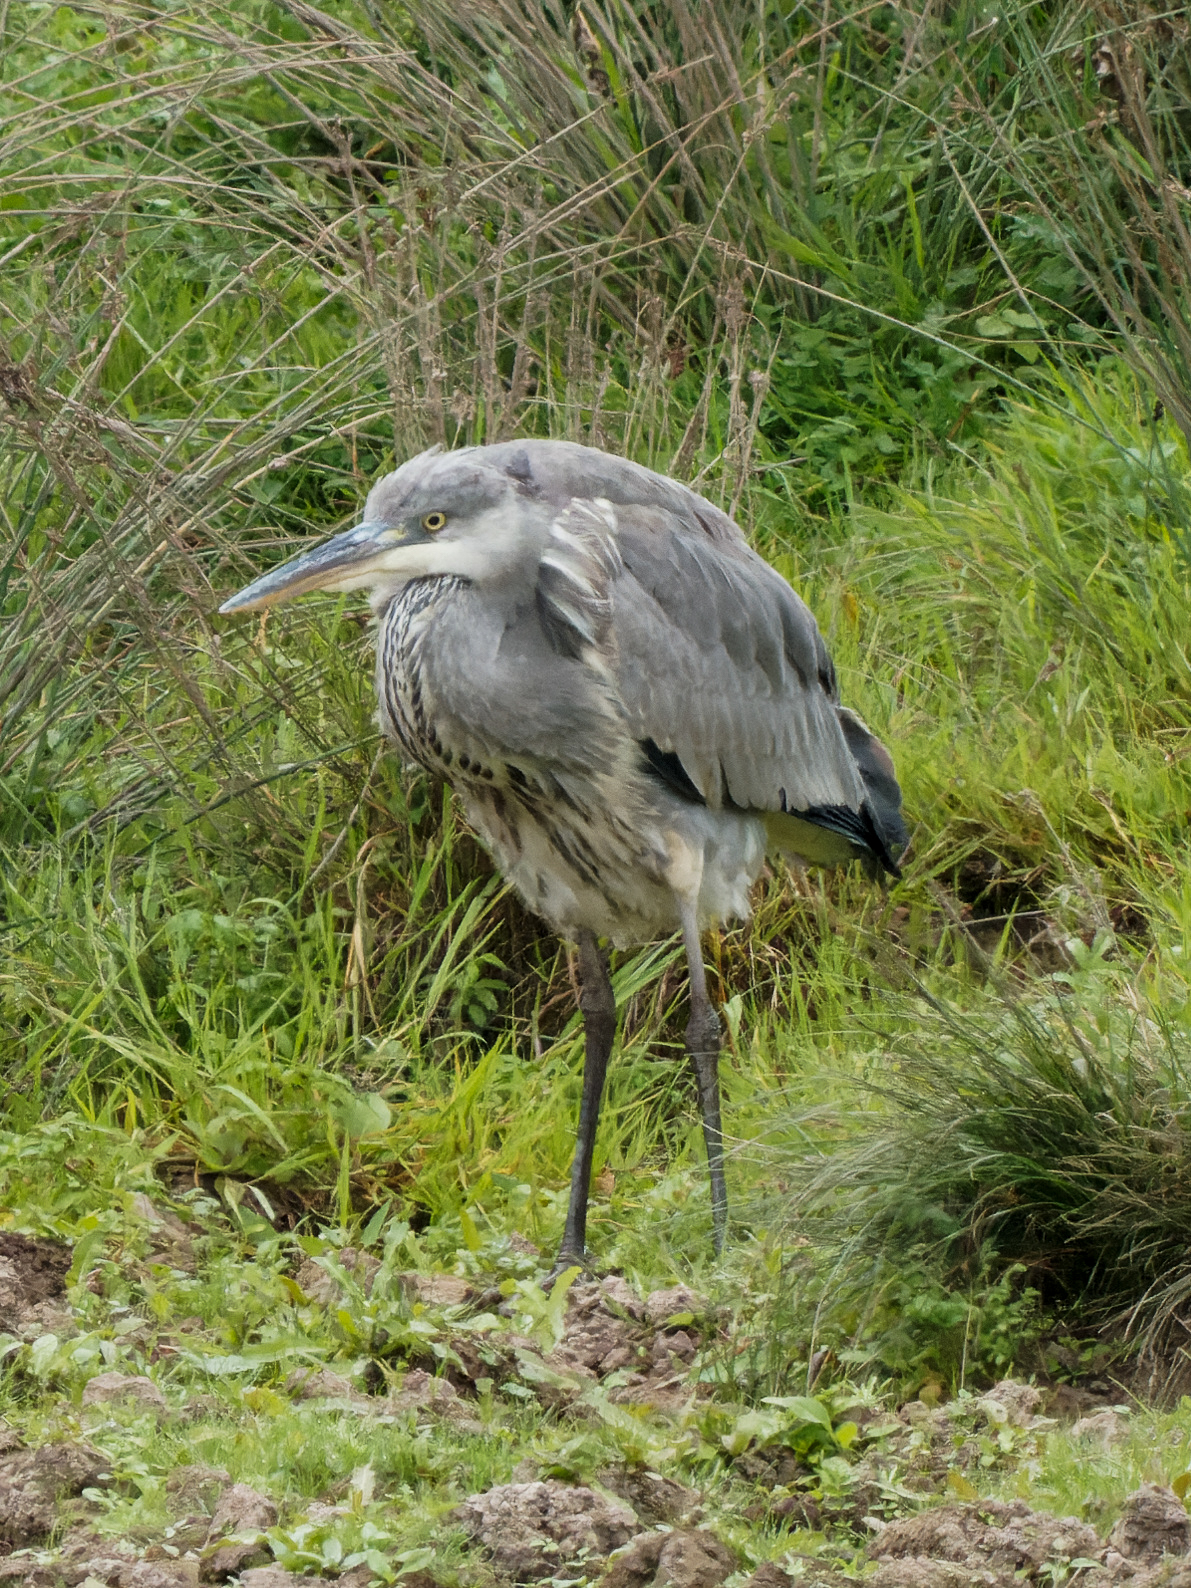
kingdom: Animalia
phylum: Chordata
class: Aves
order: Pelecaniformes
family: Ardeidae
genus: Ardea
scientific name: Ardea cinerea
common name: Grey heron
